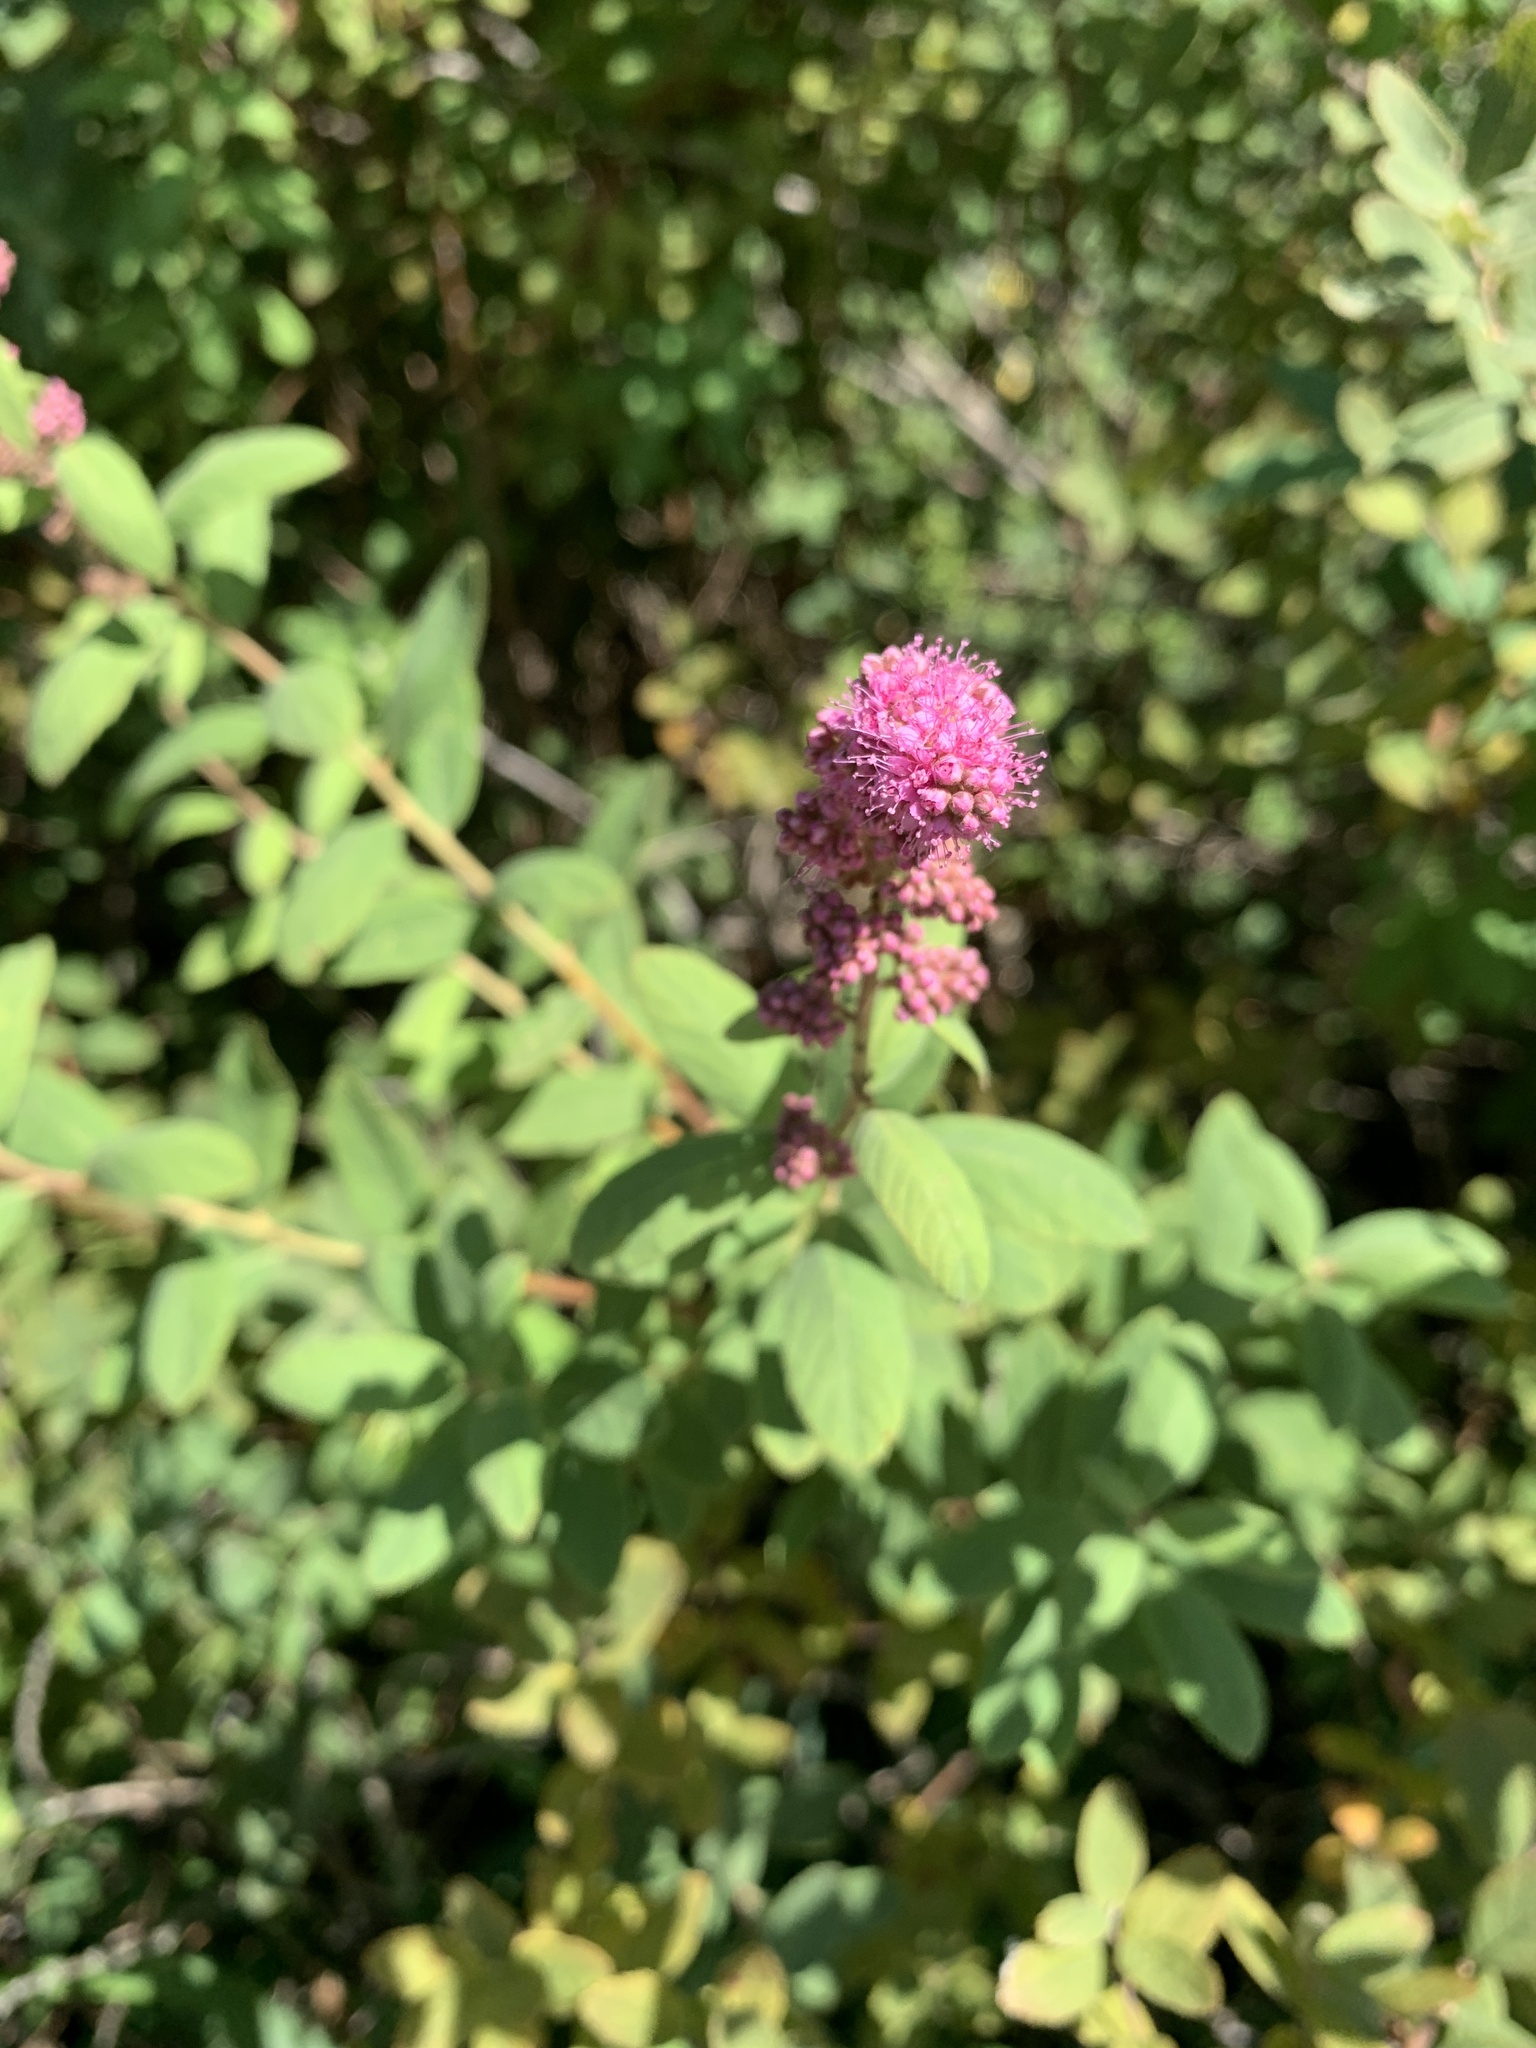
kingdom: Plantae
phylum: Tracheophyta
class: Magnoliopsida
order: Rosales
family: Rosaceae
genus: Spiraea
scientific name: Spiraea douglasii
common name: Steeplebush
